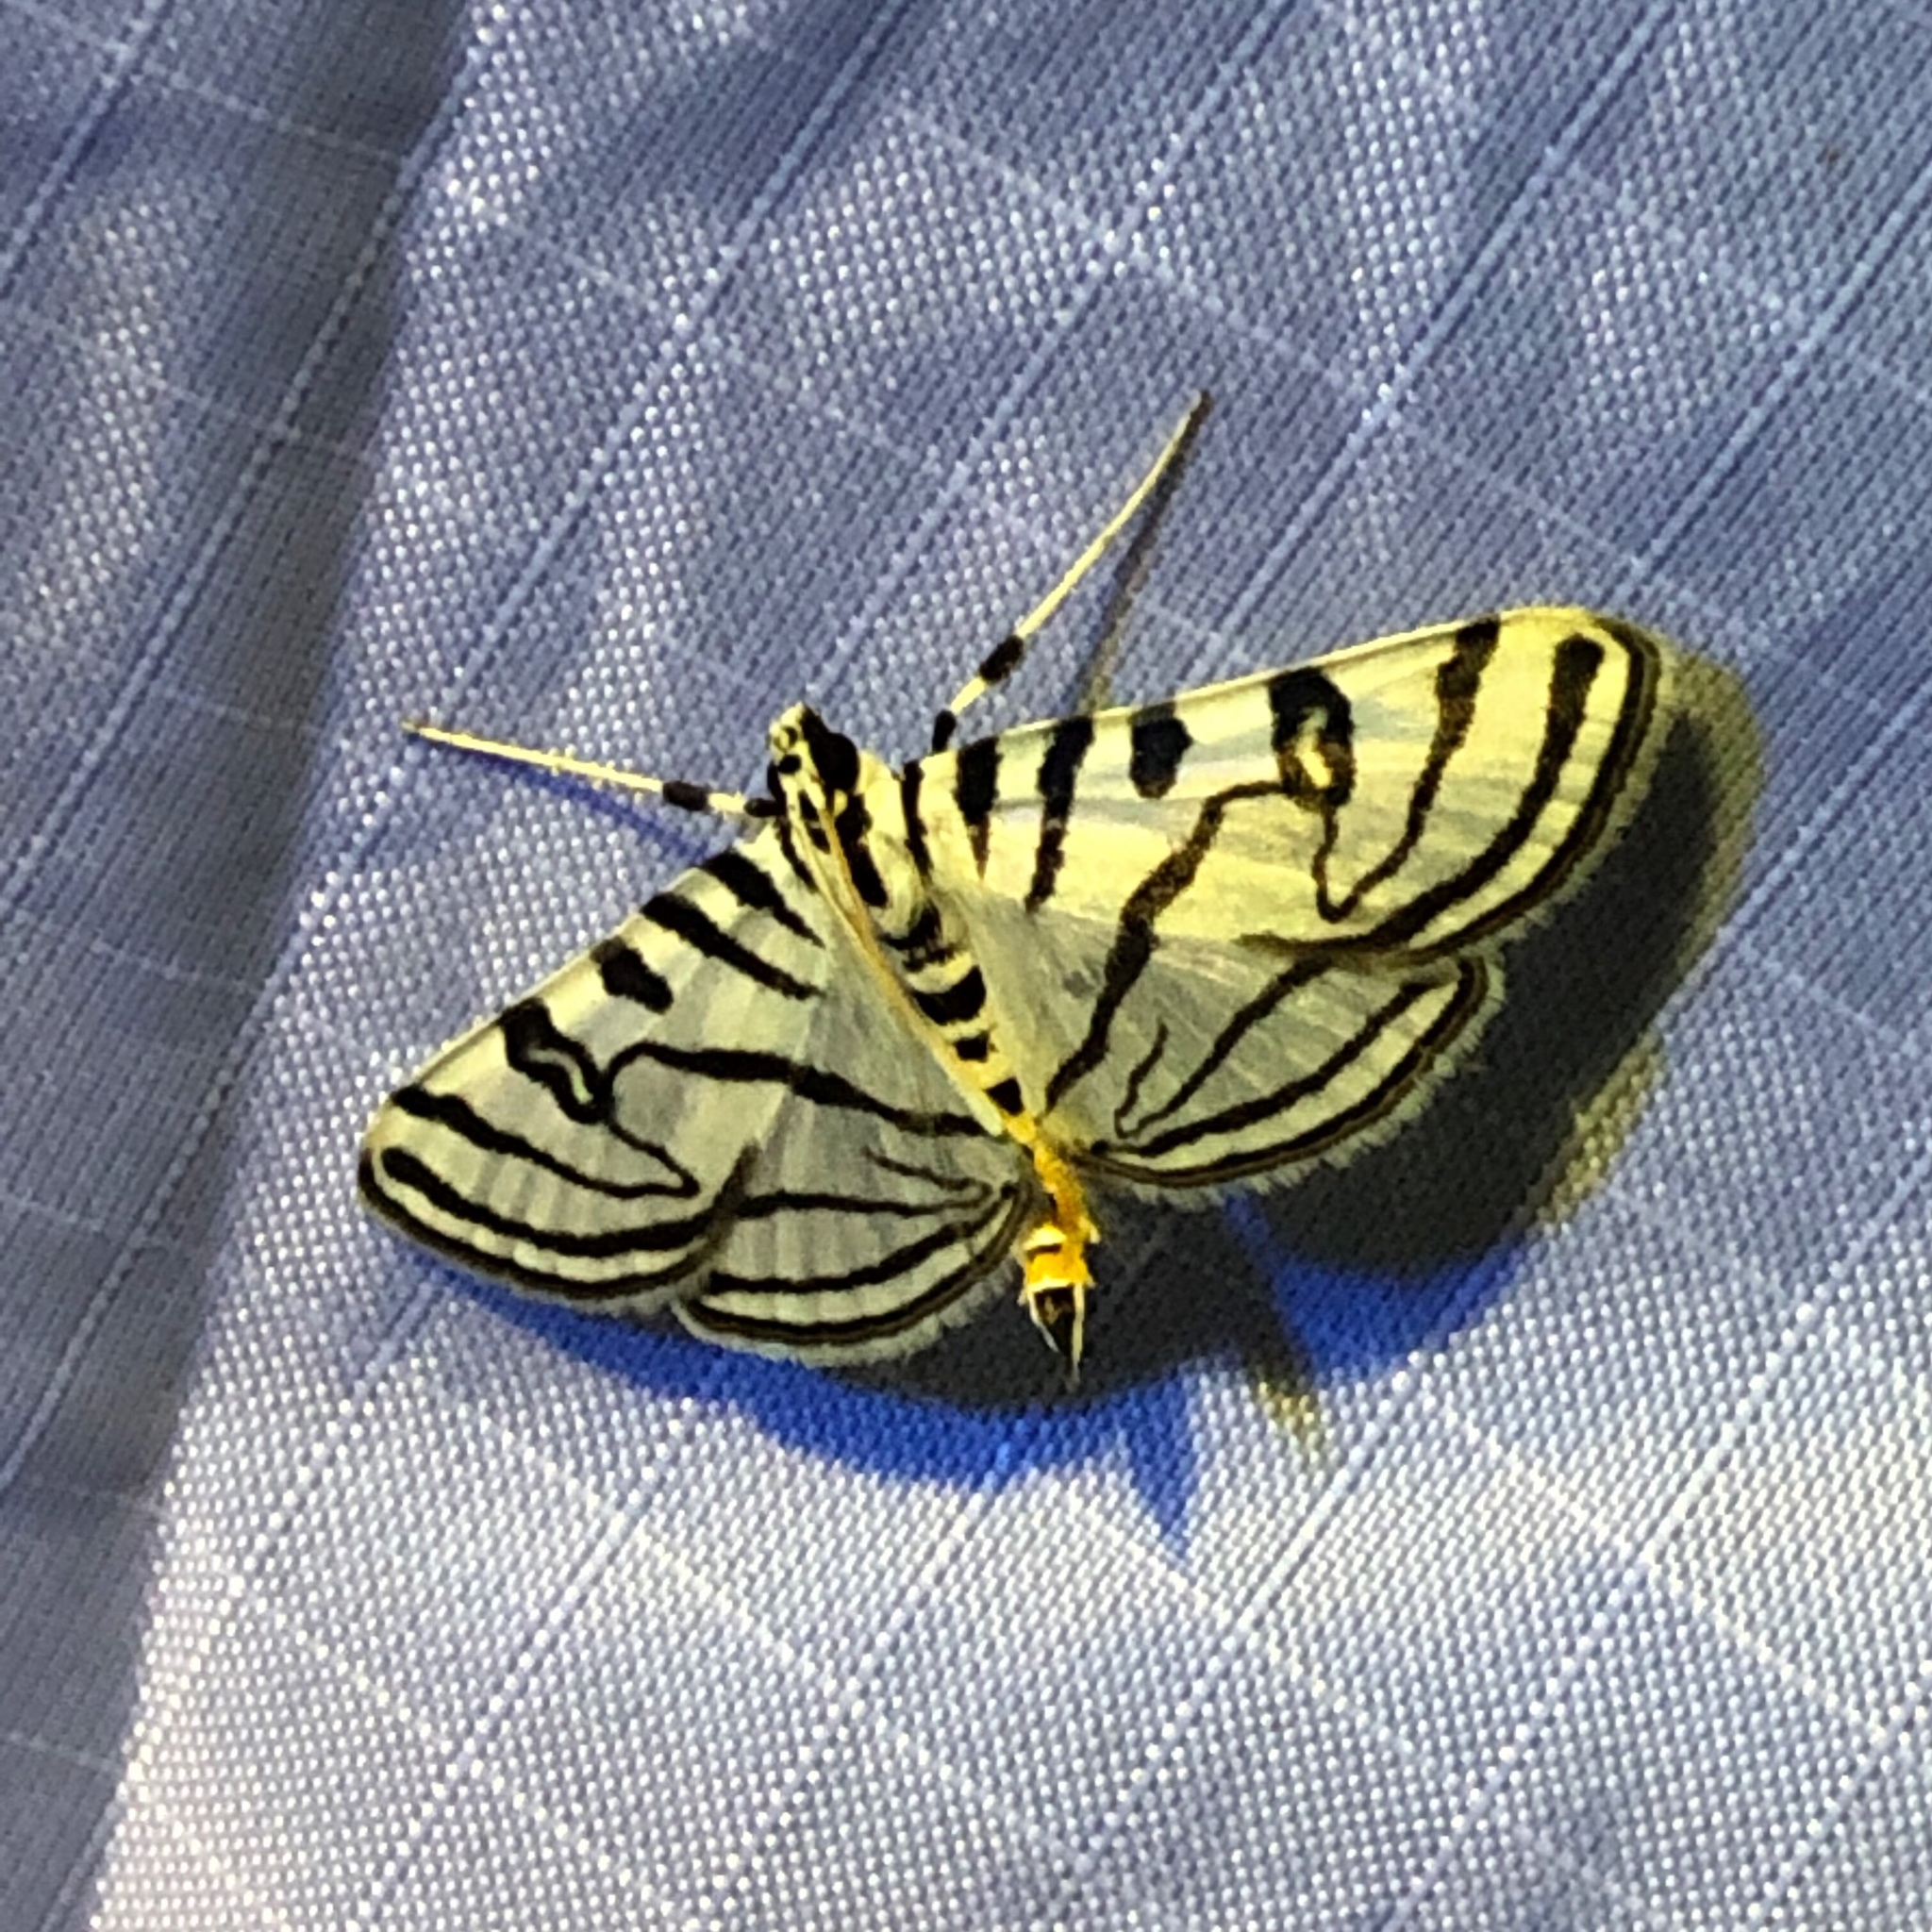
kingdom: Animalia
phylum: Arthropoda
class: Insecta
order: Lepidoptera
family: Crambidae
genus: Conchylodes
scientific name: Conchylodes ovulalis
